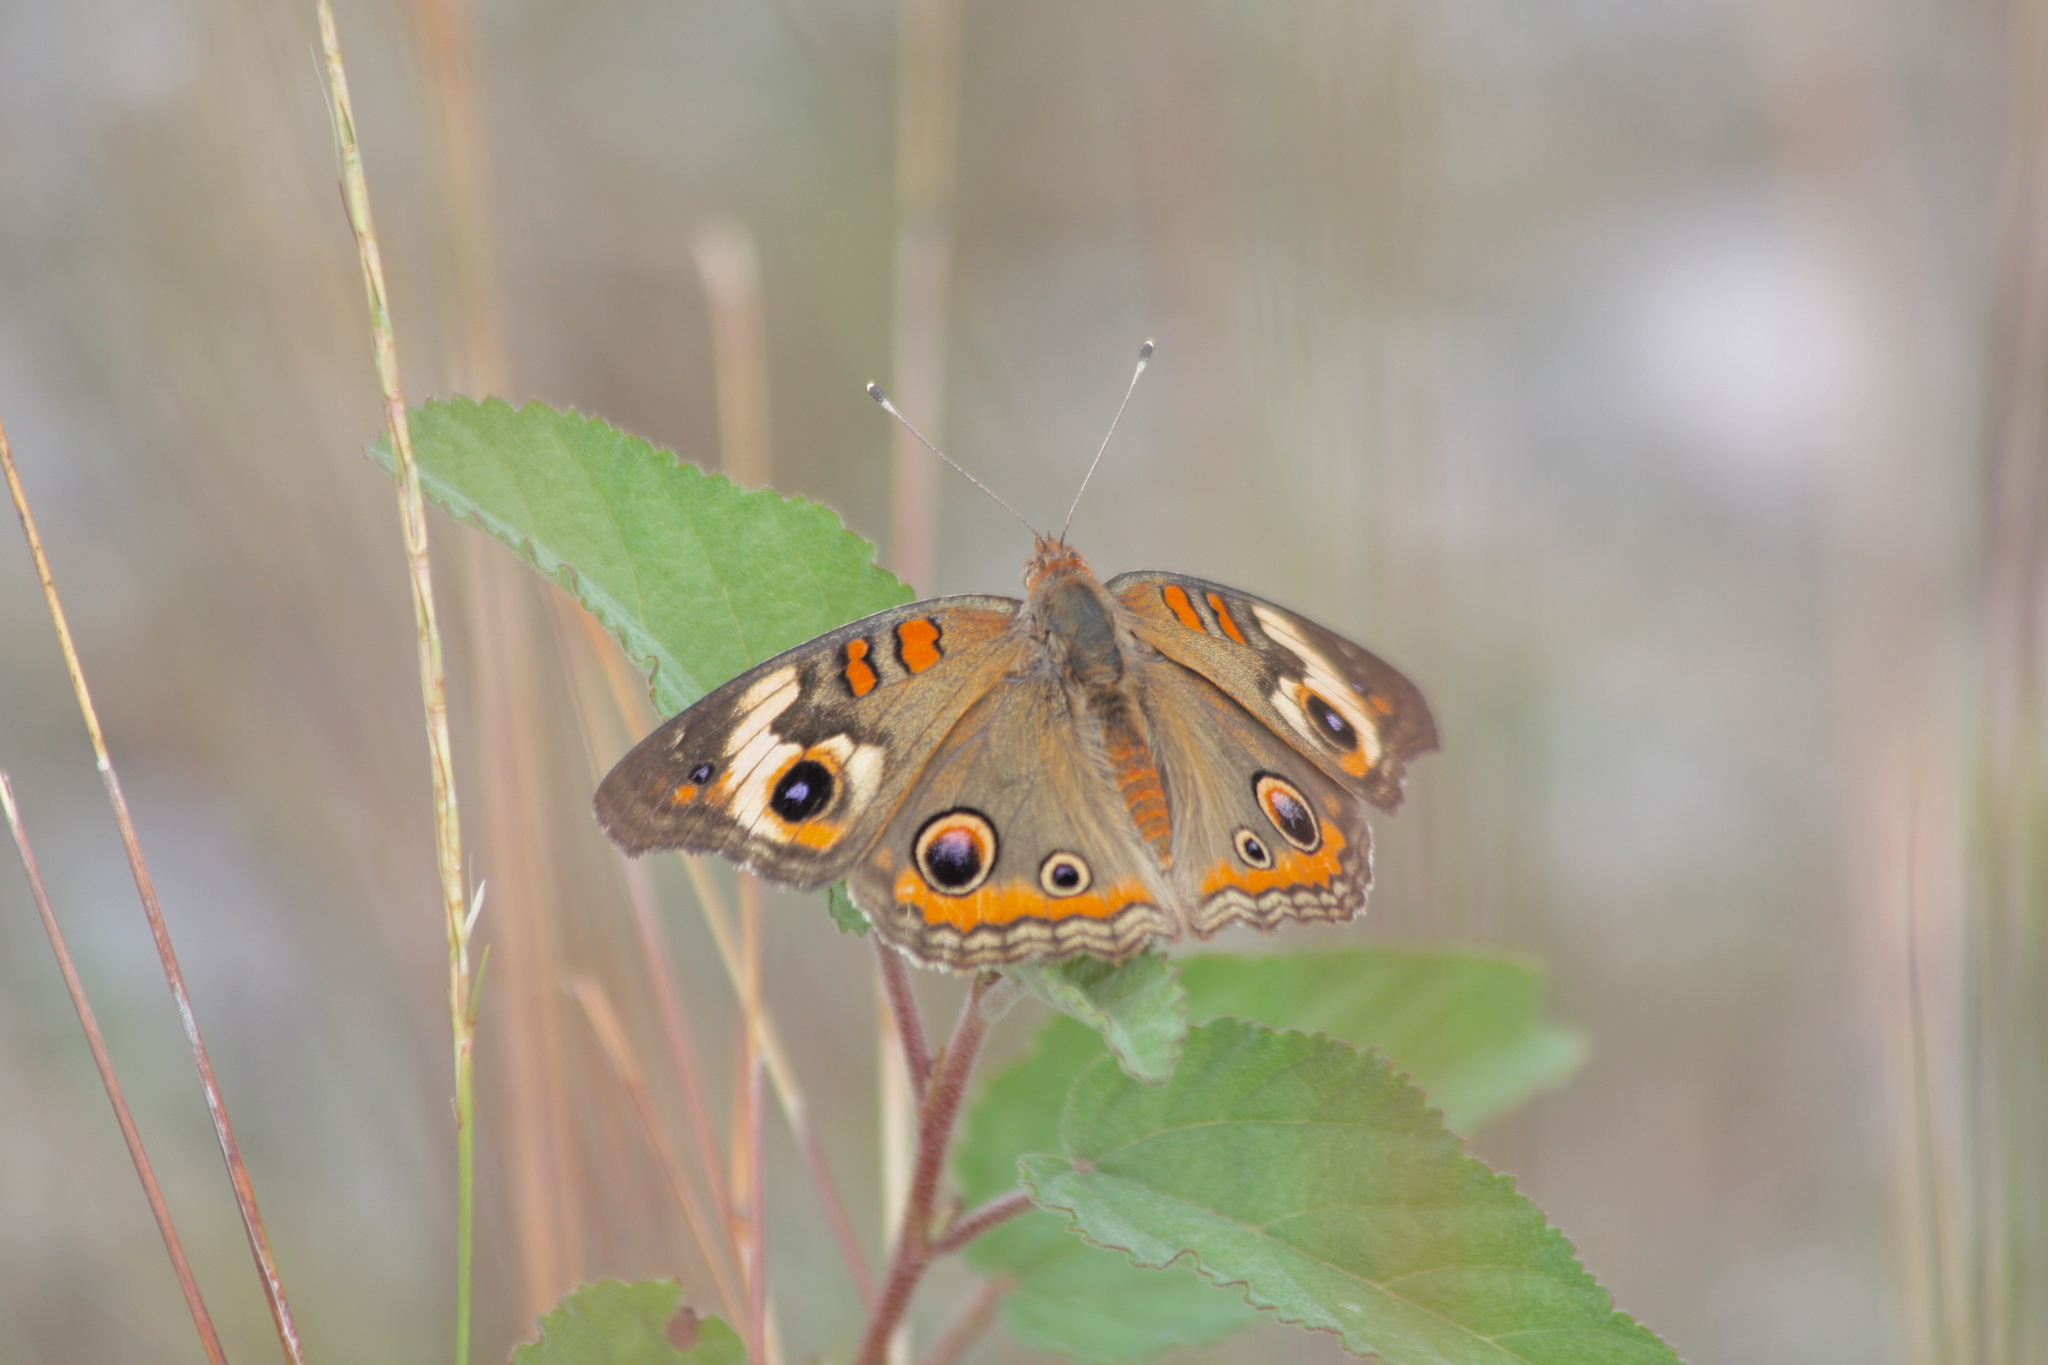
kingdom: Animalia
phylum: Arthropoda
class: Insecta
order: Lepidoptera
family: Nymphalidae
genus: Junonia
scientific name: Junonia coenia
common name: Common buckeye
